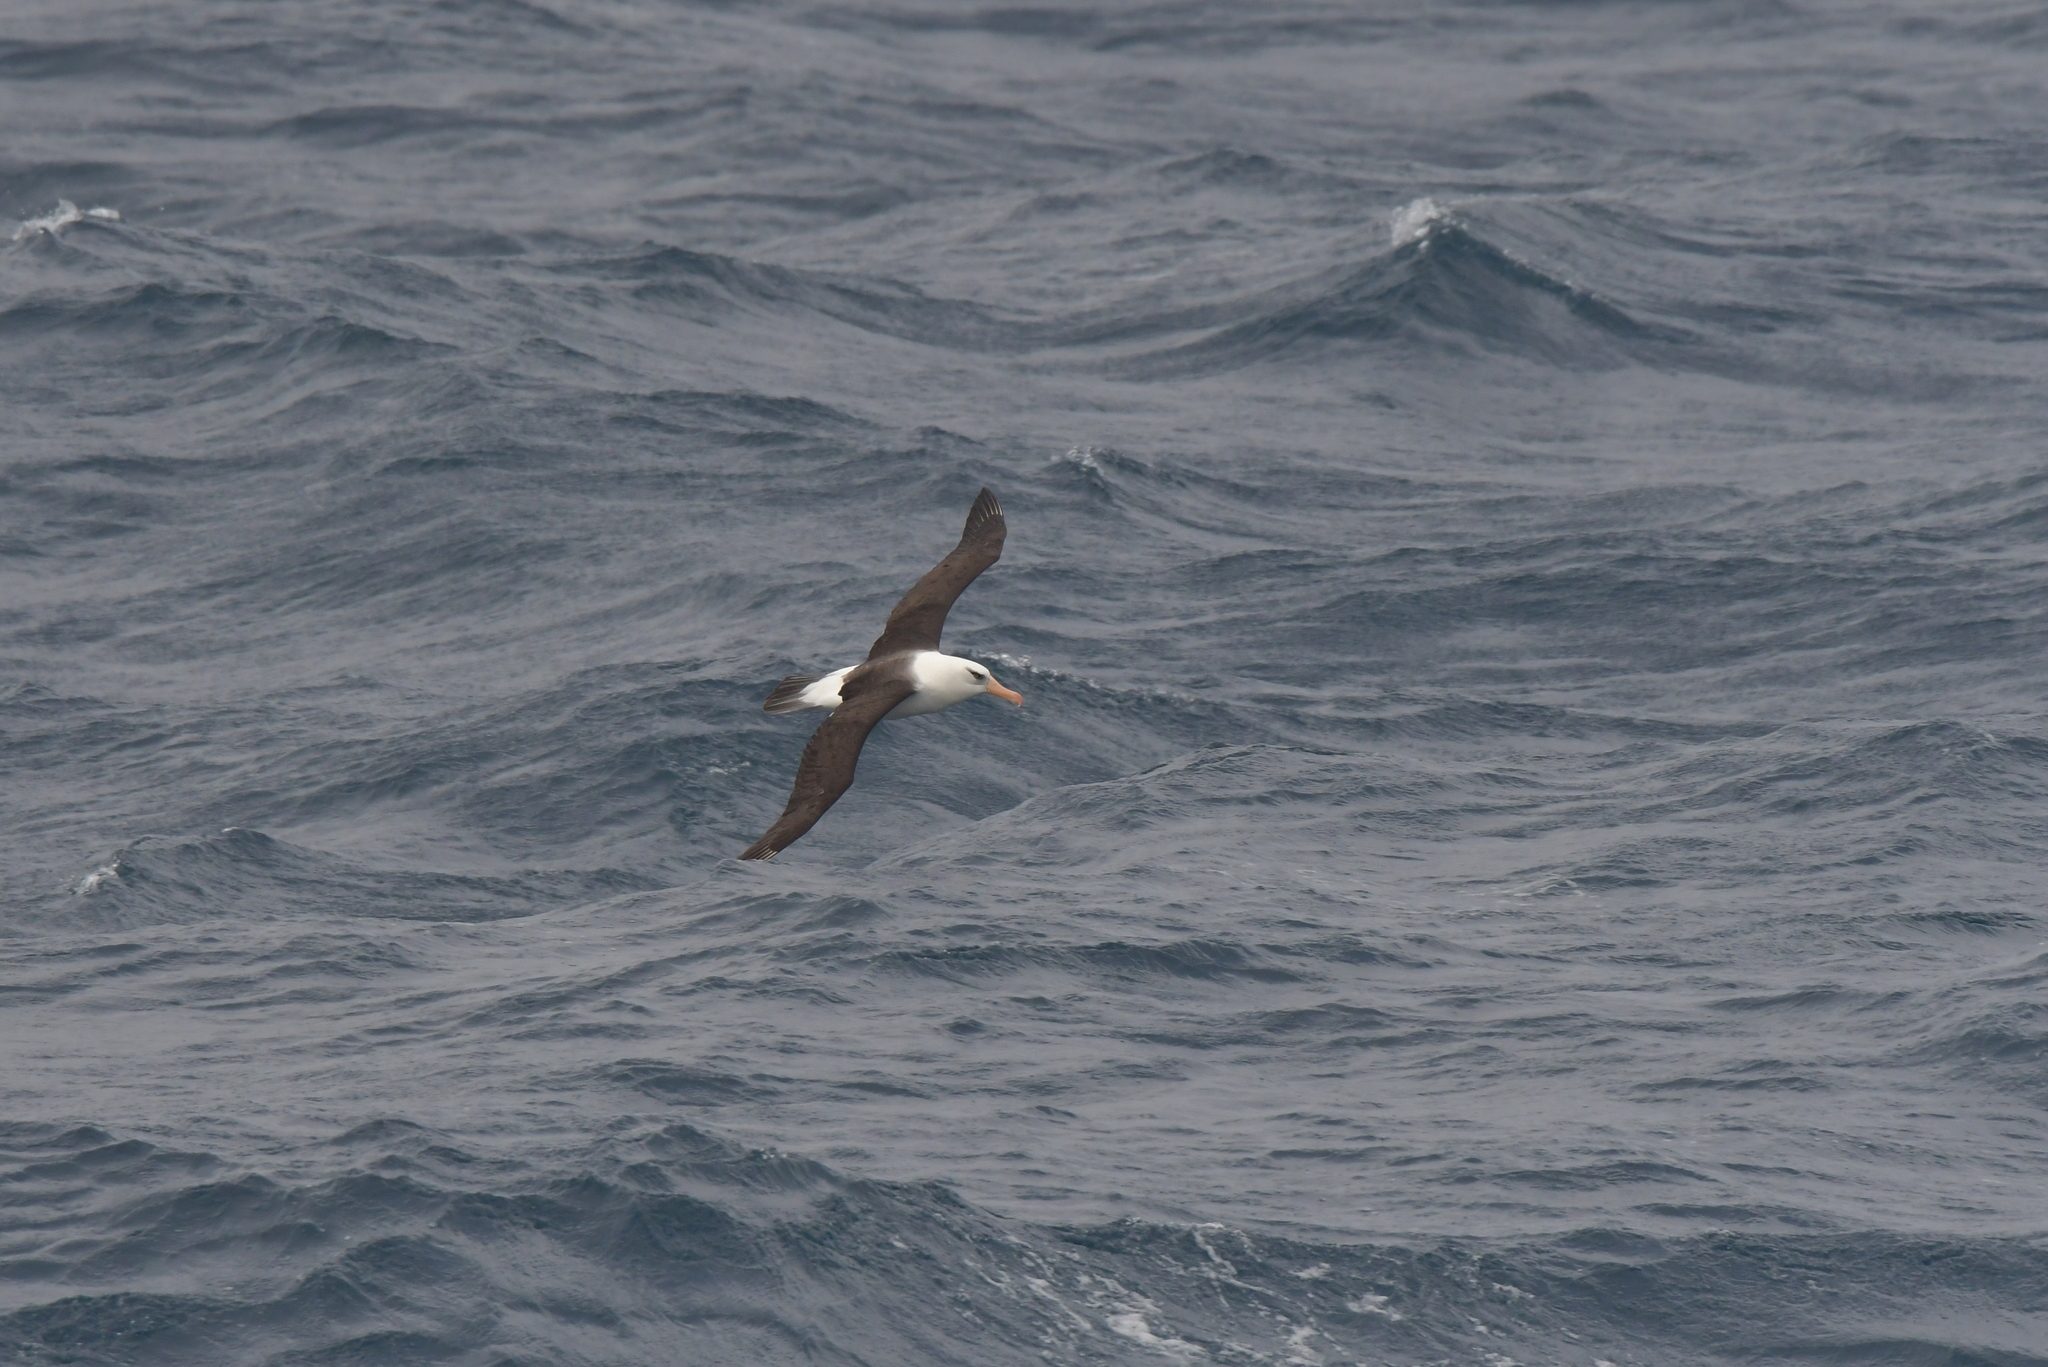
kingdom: Animalia
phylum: Chordata
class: Aves
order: Procellariiformes
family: Diomedeidae
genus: Thalassarche
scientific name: Thalassarche impavida
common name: Campbell albatross
